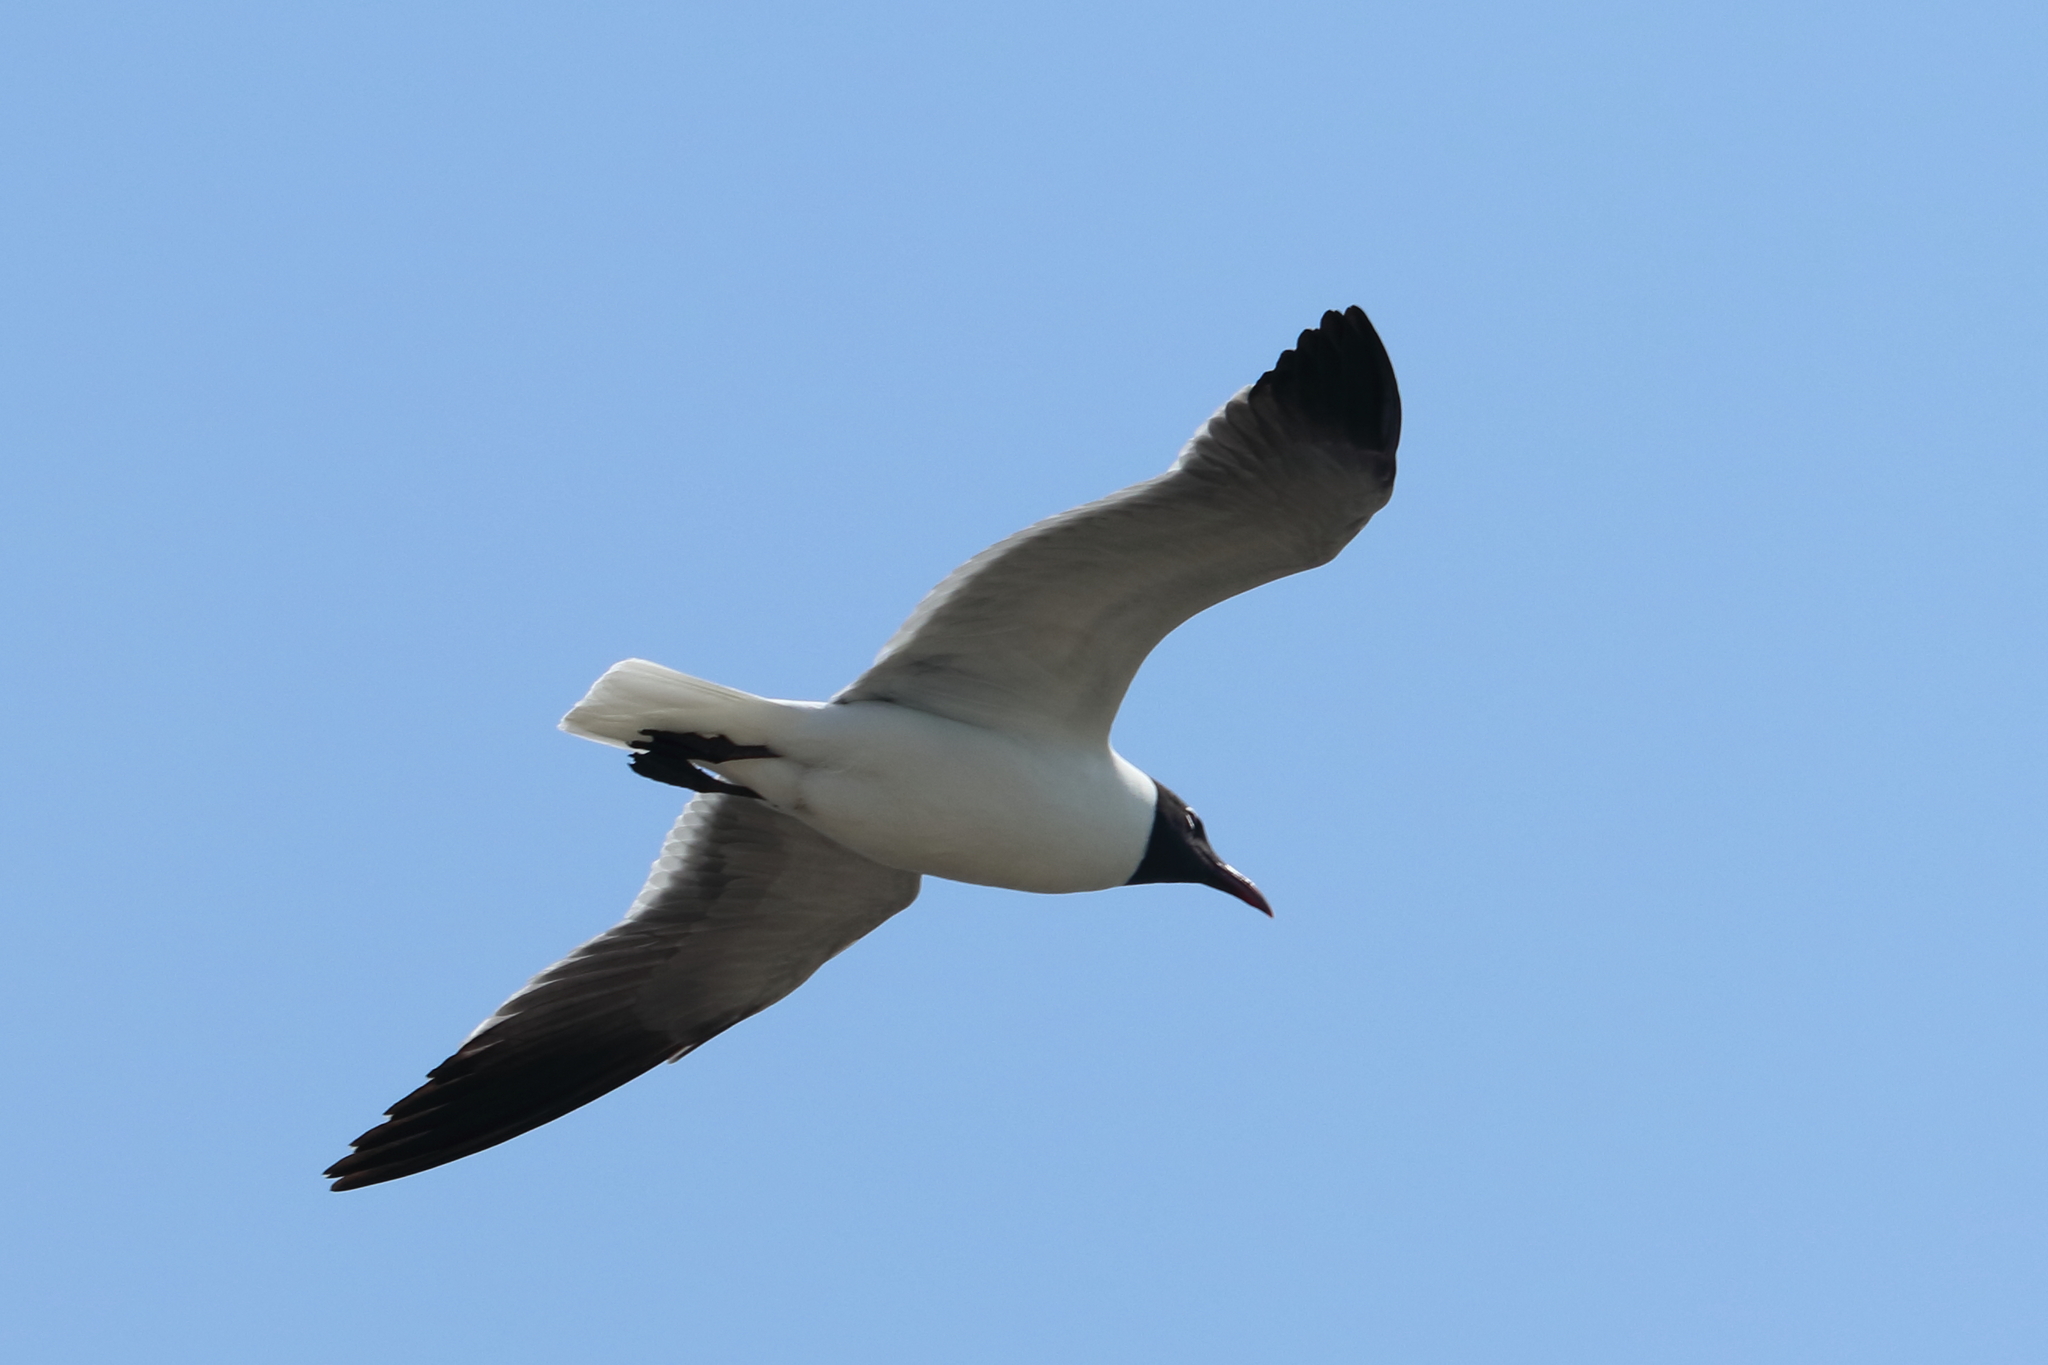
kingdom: Animalia
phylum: Chordata
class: Aves
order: Charadriiformes
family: Laridae
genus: Leucophaeus
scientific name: Leucophaeus atricilla
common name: Laughing gull
